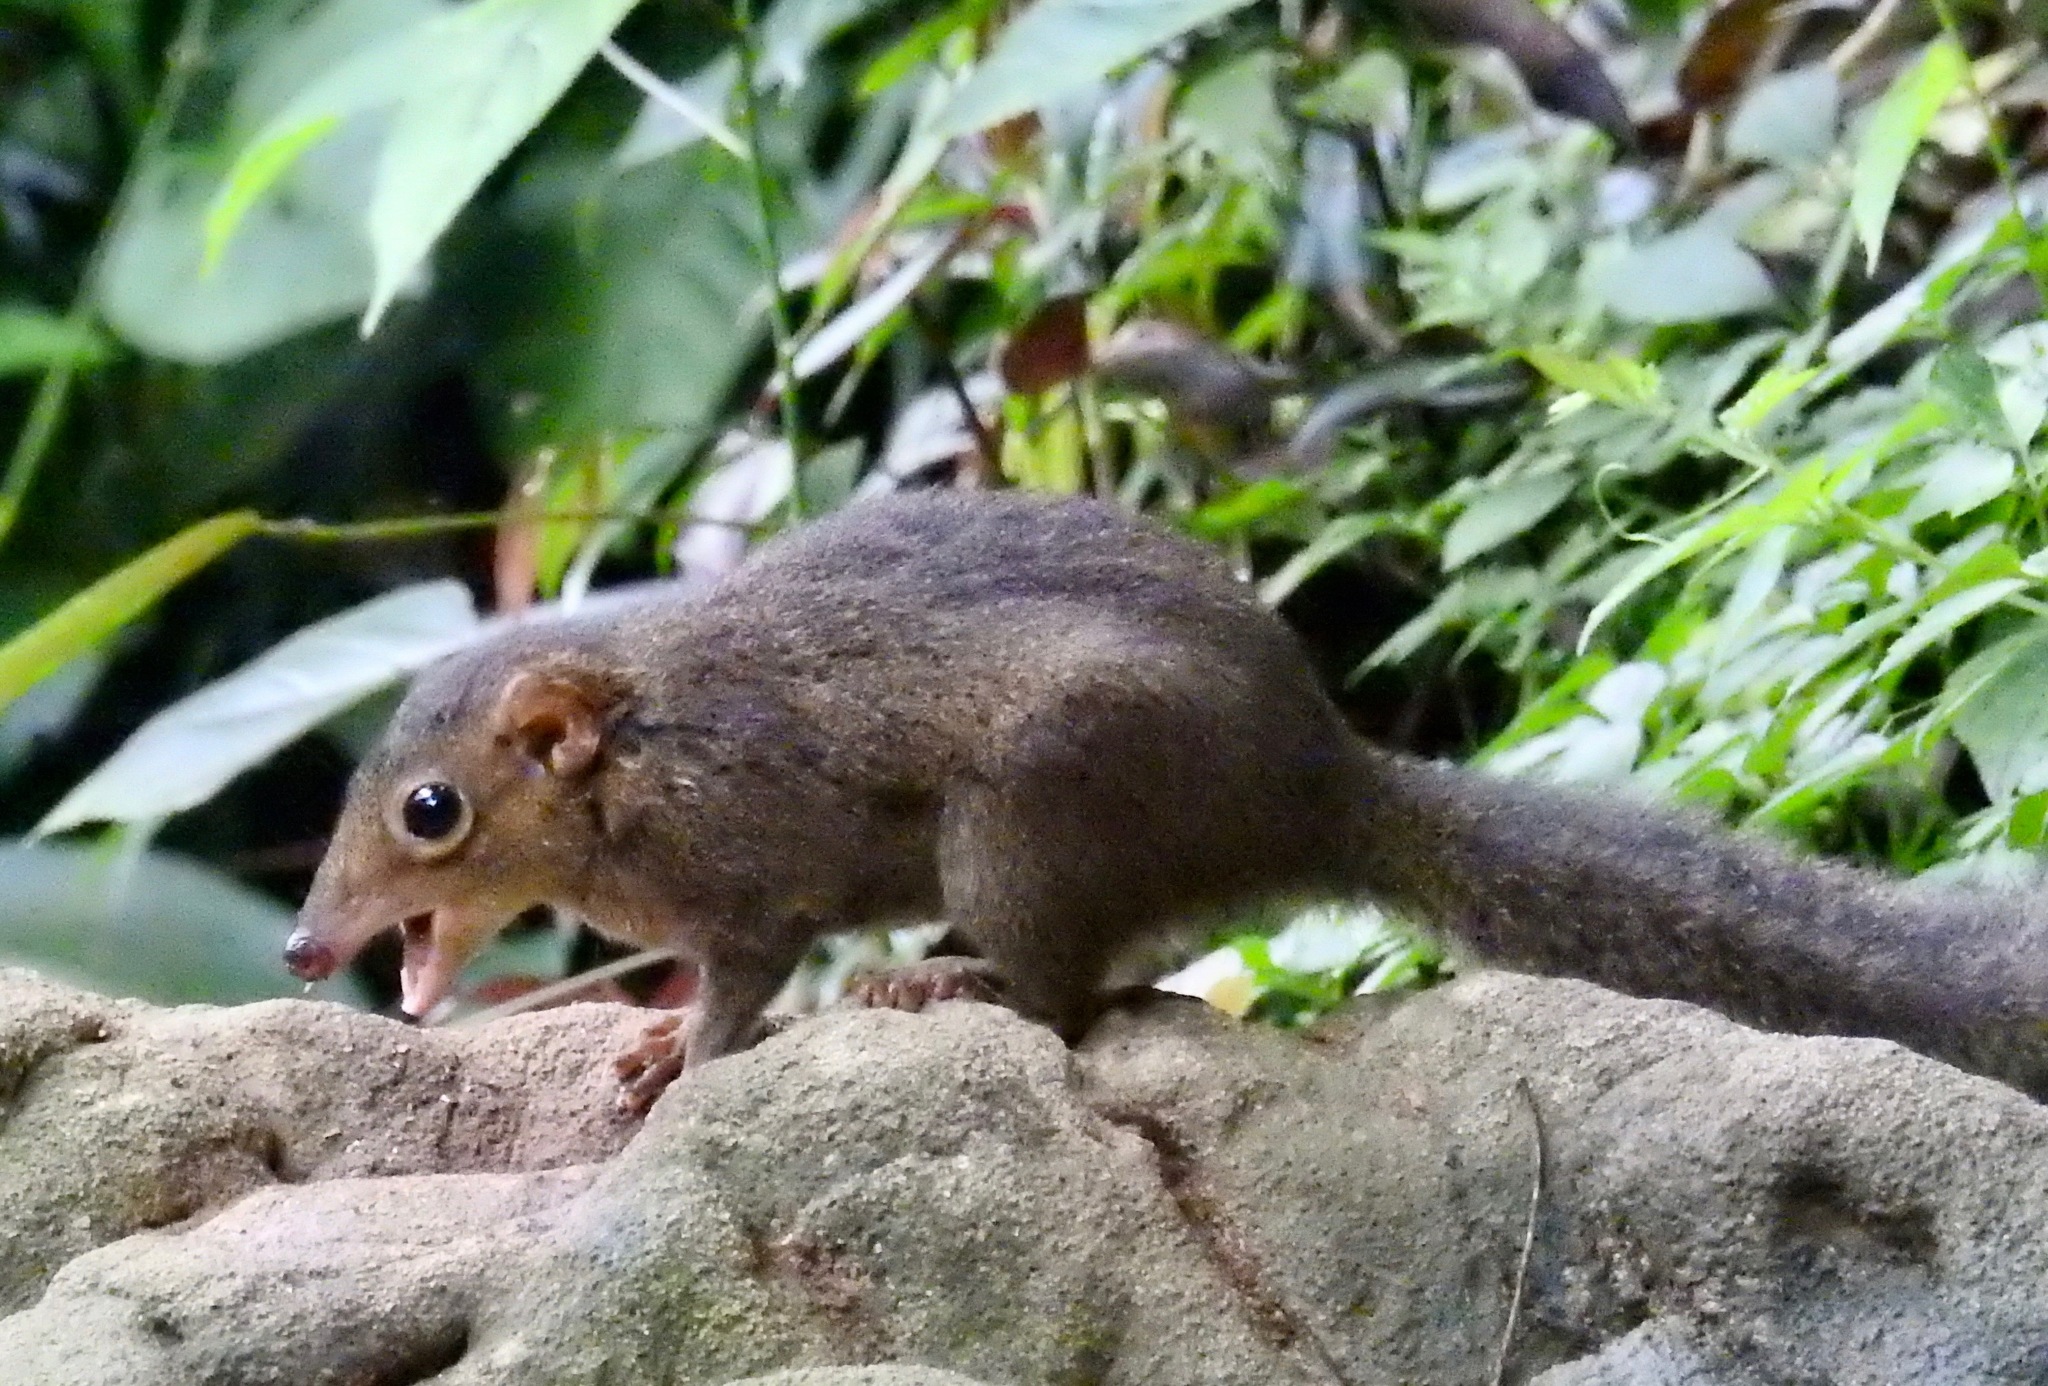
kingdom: Animalia
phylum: Chordata
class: Mammalia
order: Scandentia
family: Tupaiidae
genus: Tupaia
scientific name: Tupaia belangeri
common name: Northern treeshrew
